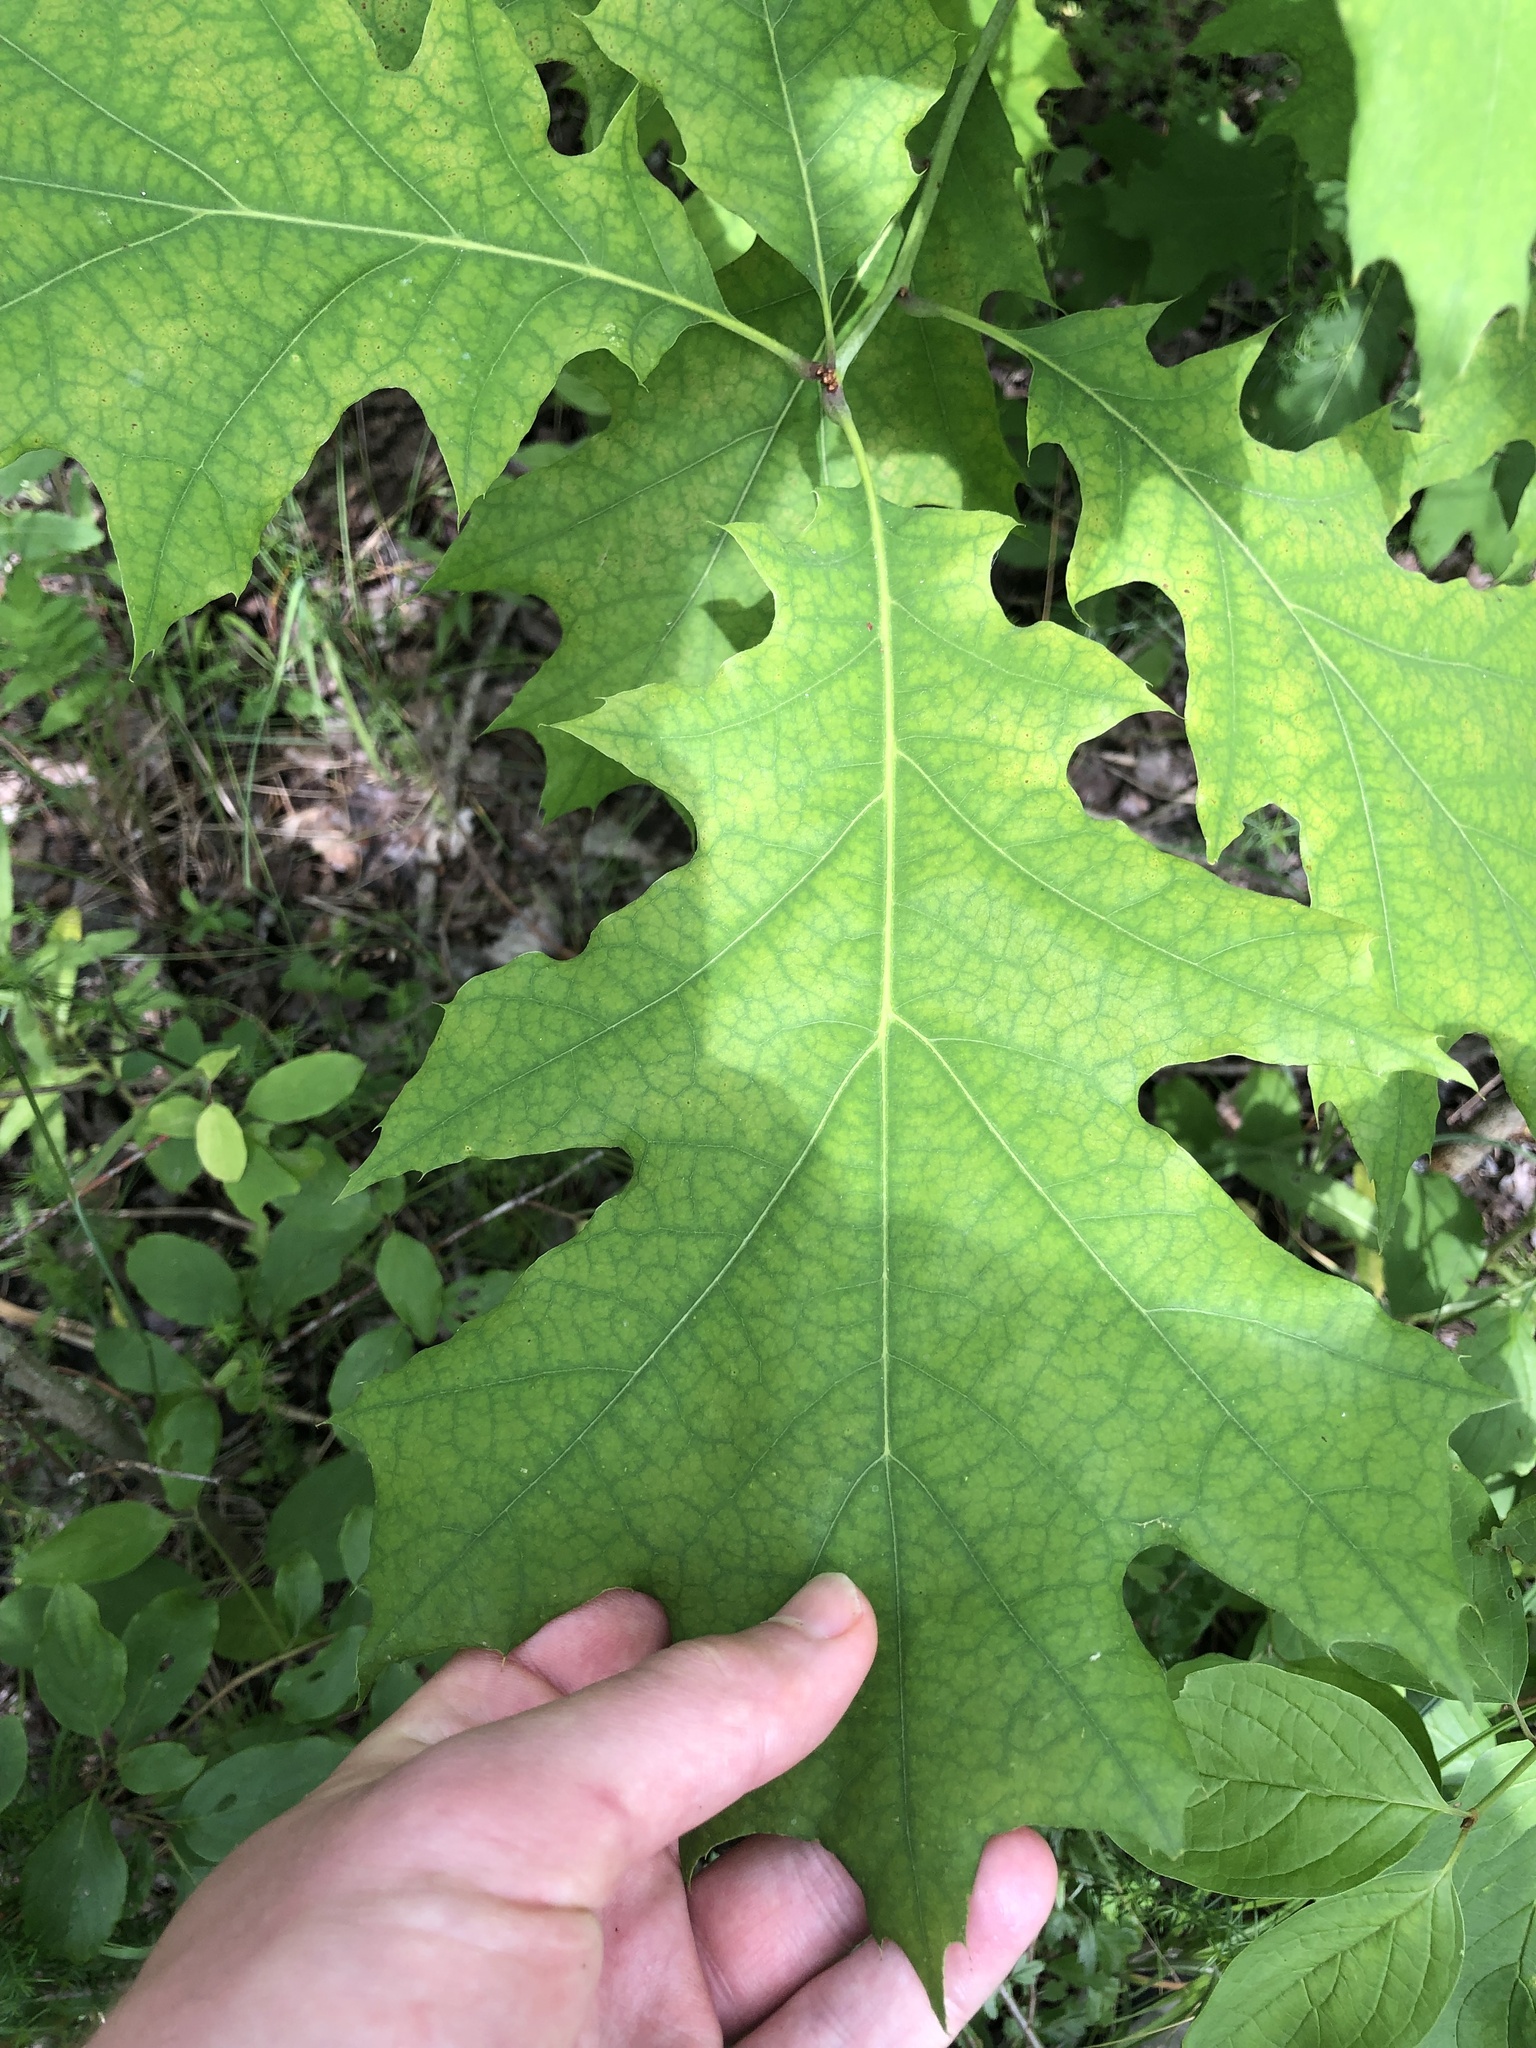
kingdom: Plantae
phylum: Tracheophyta
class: Magnoliopsida
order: Fagales
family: Fagaceae
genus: Quercus
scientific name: Quercus rubra
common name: Red oak
